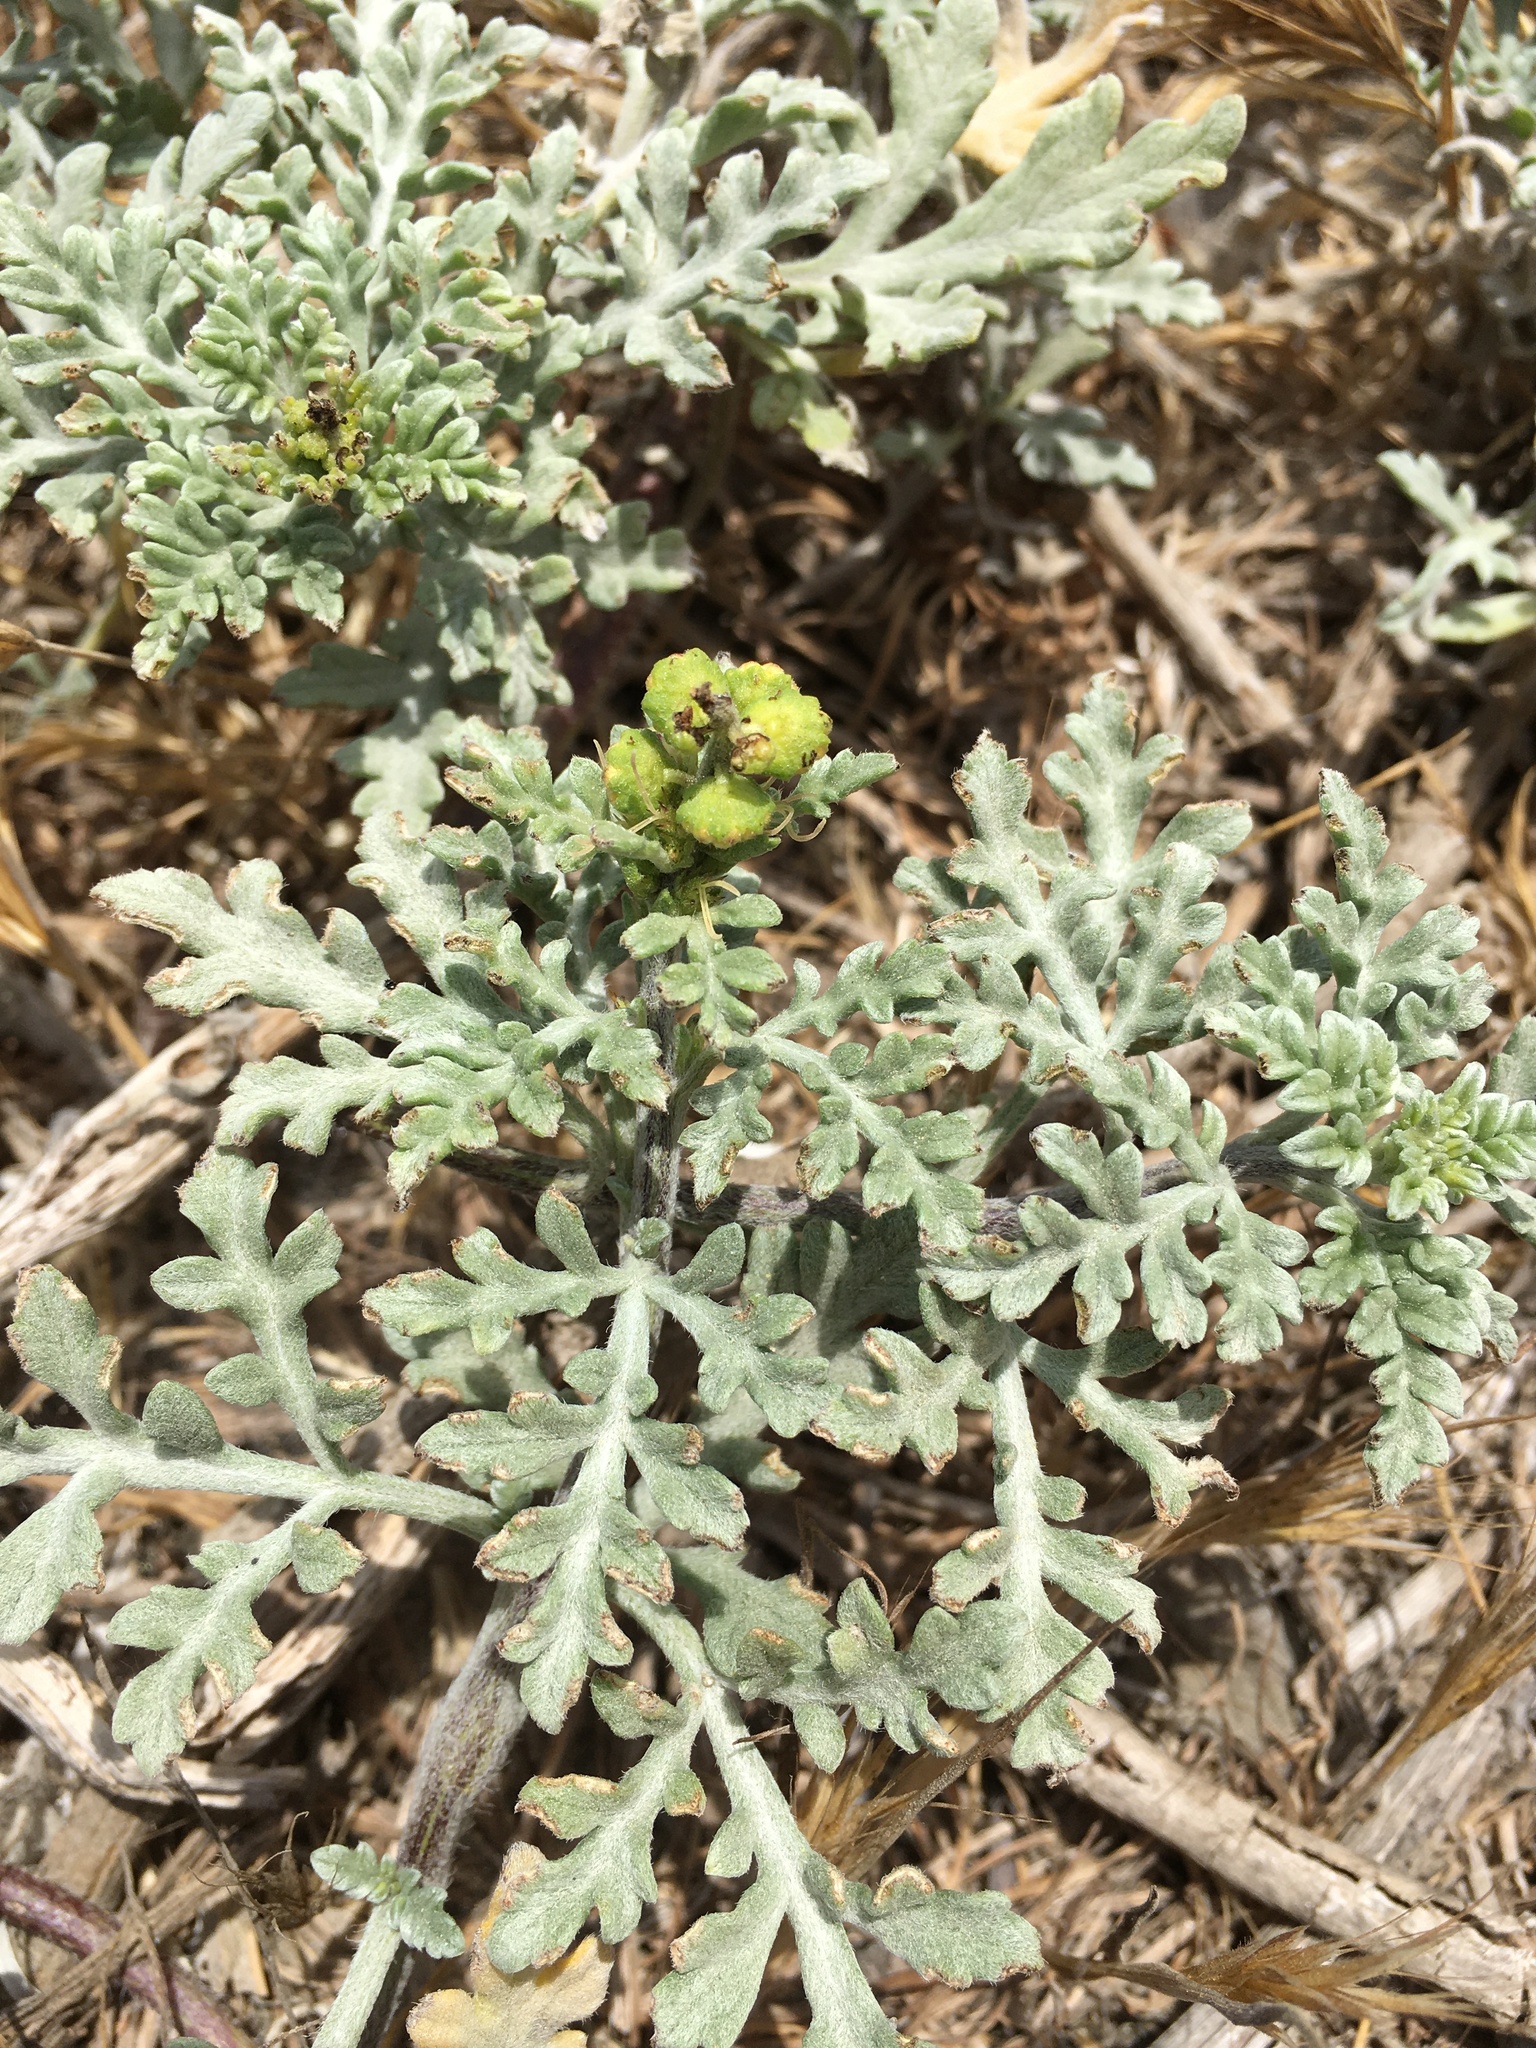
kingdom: Plantae
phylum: Tracheophyta
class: Magnoliopsida
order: Asterales
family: Asteraceae
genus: Ambrosia
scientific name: Ambrosia chamissonis
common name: Beachbur
